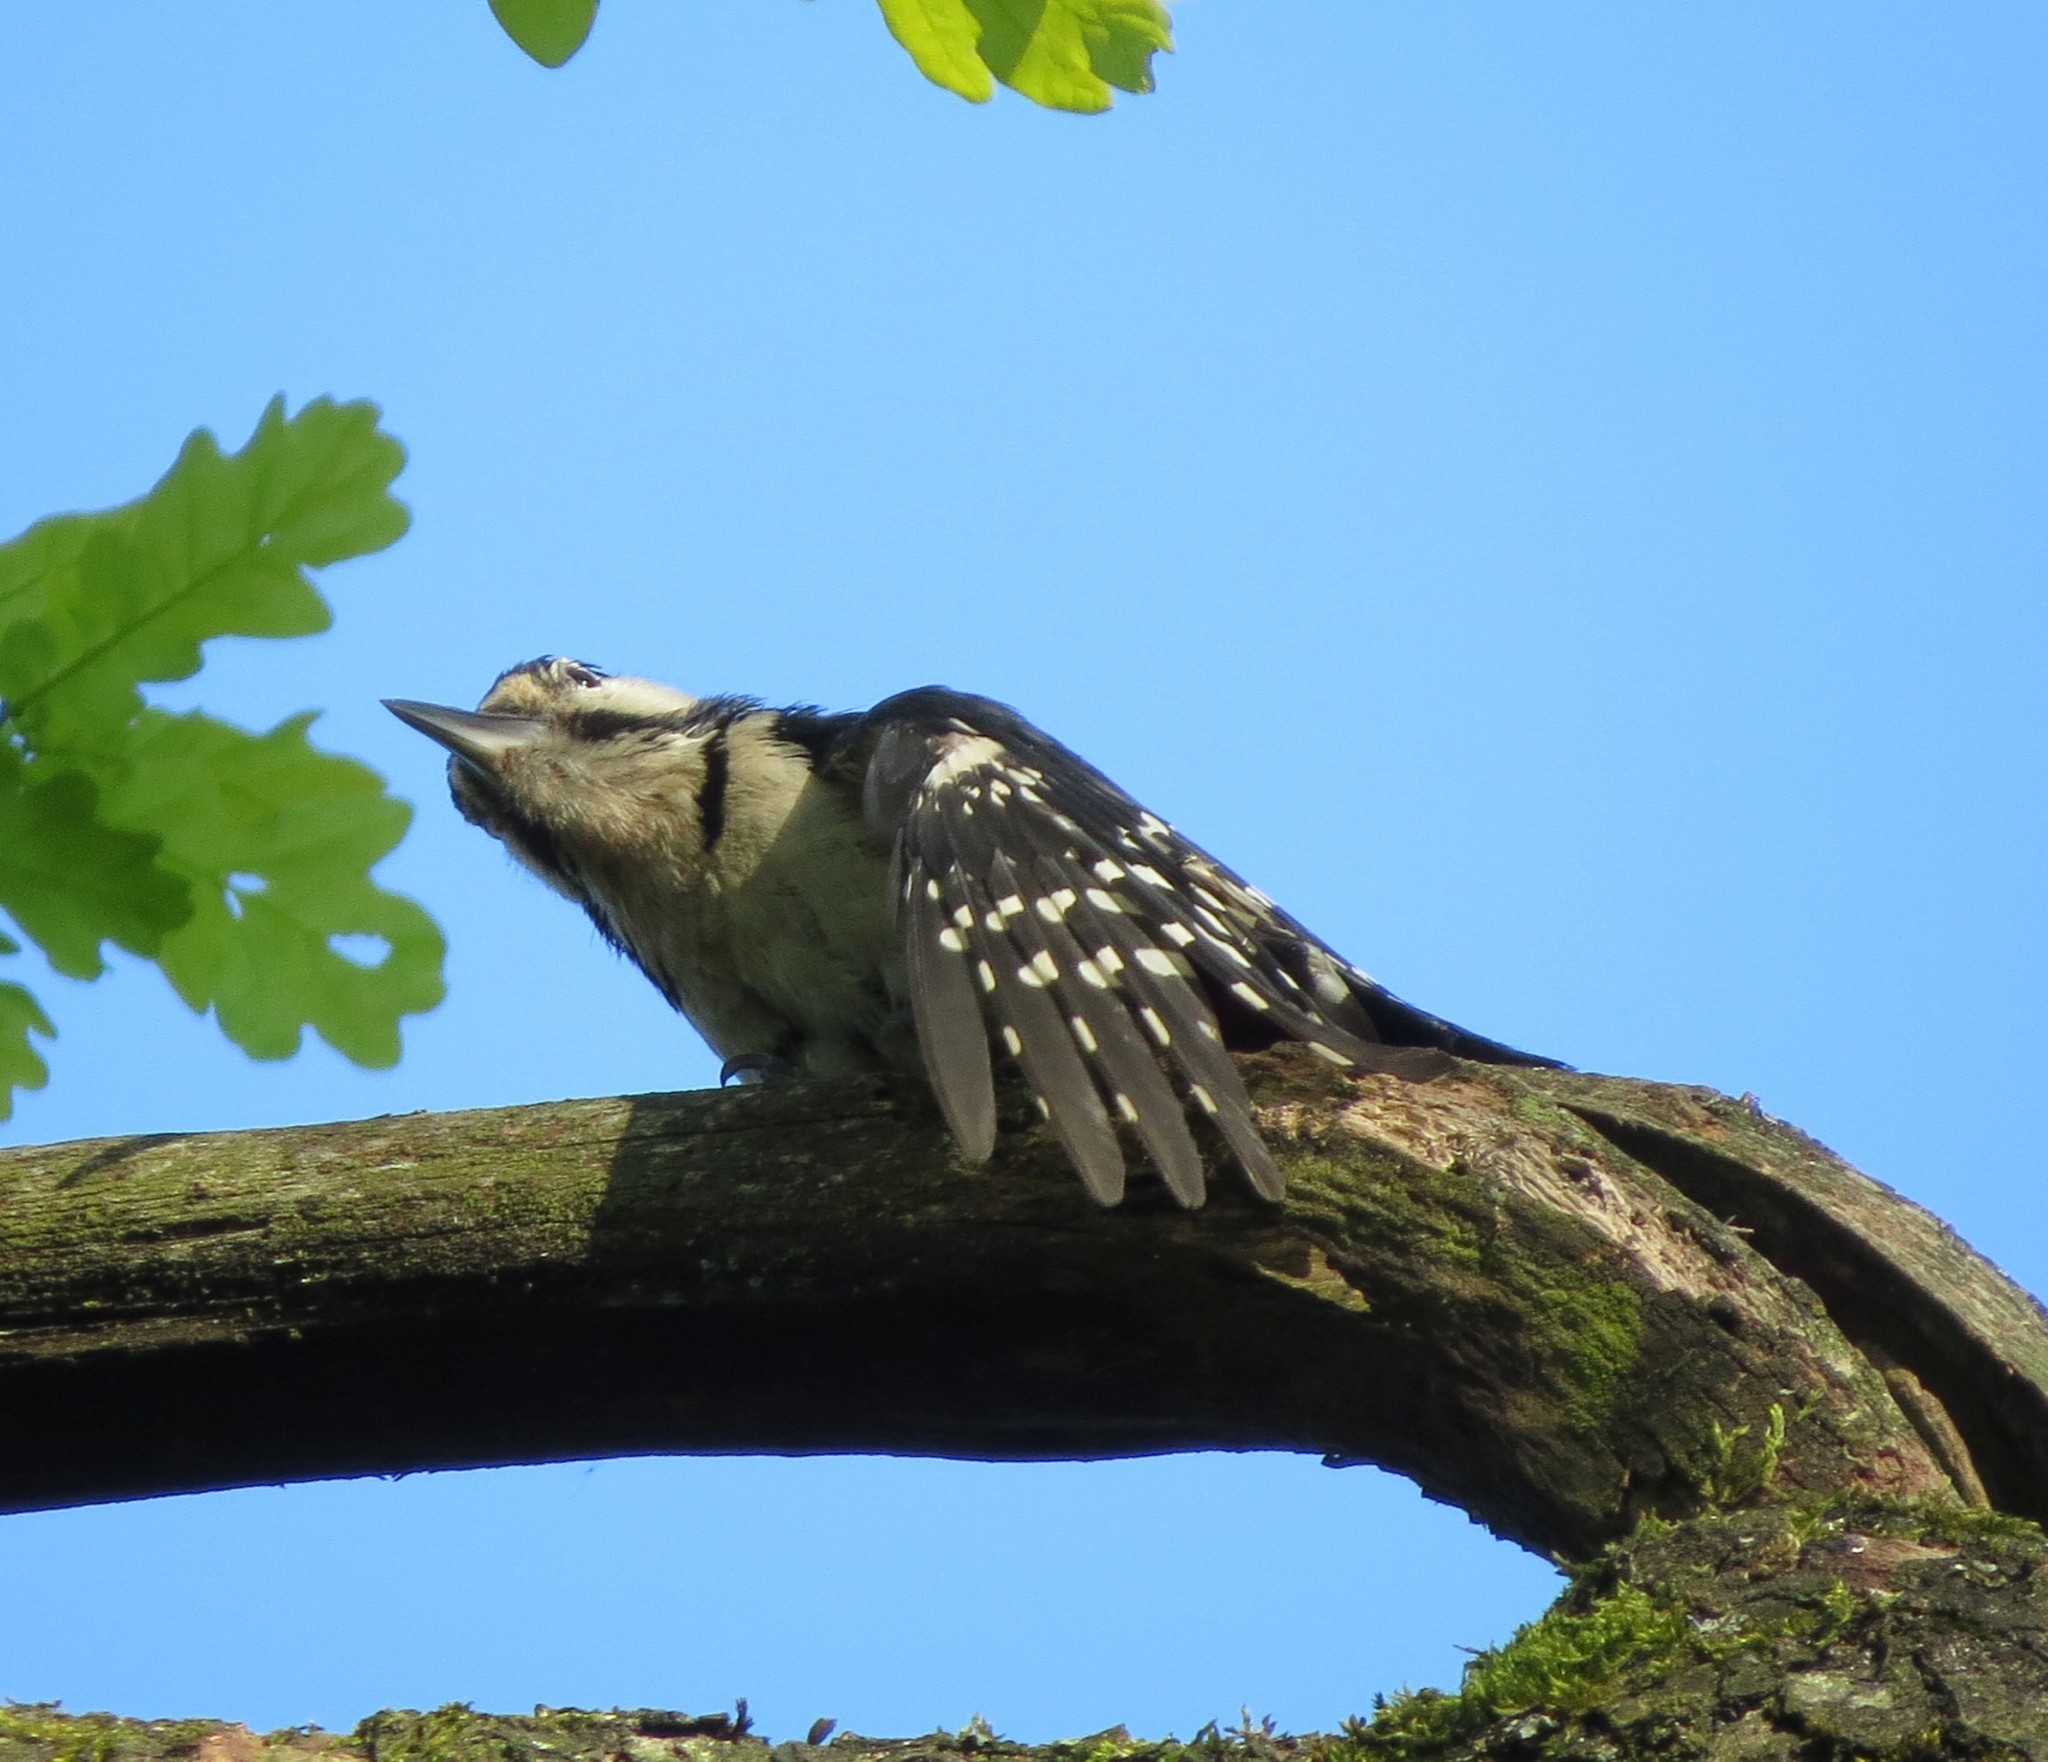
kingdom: Animalia
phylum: Chordata
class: Aves
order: Piciformes
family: Picidae
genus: Dendrocopos
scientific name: Dendrocopos major
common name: Great spotted woodpecker
